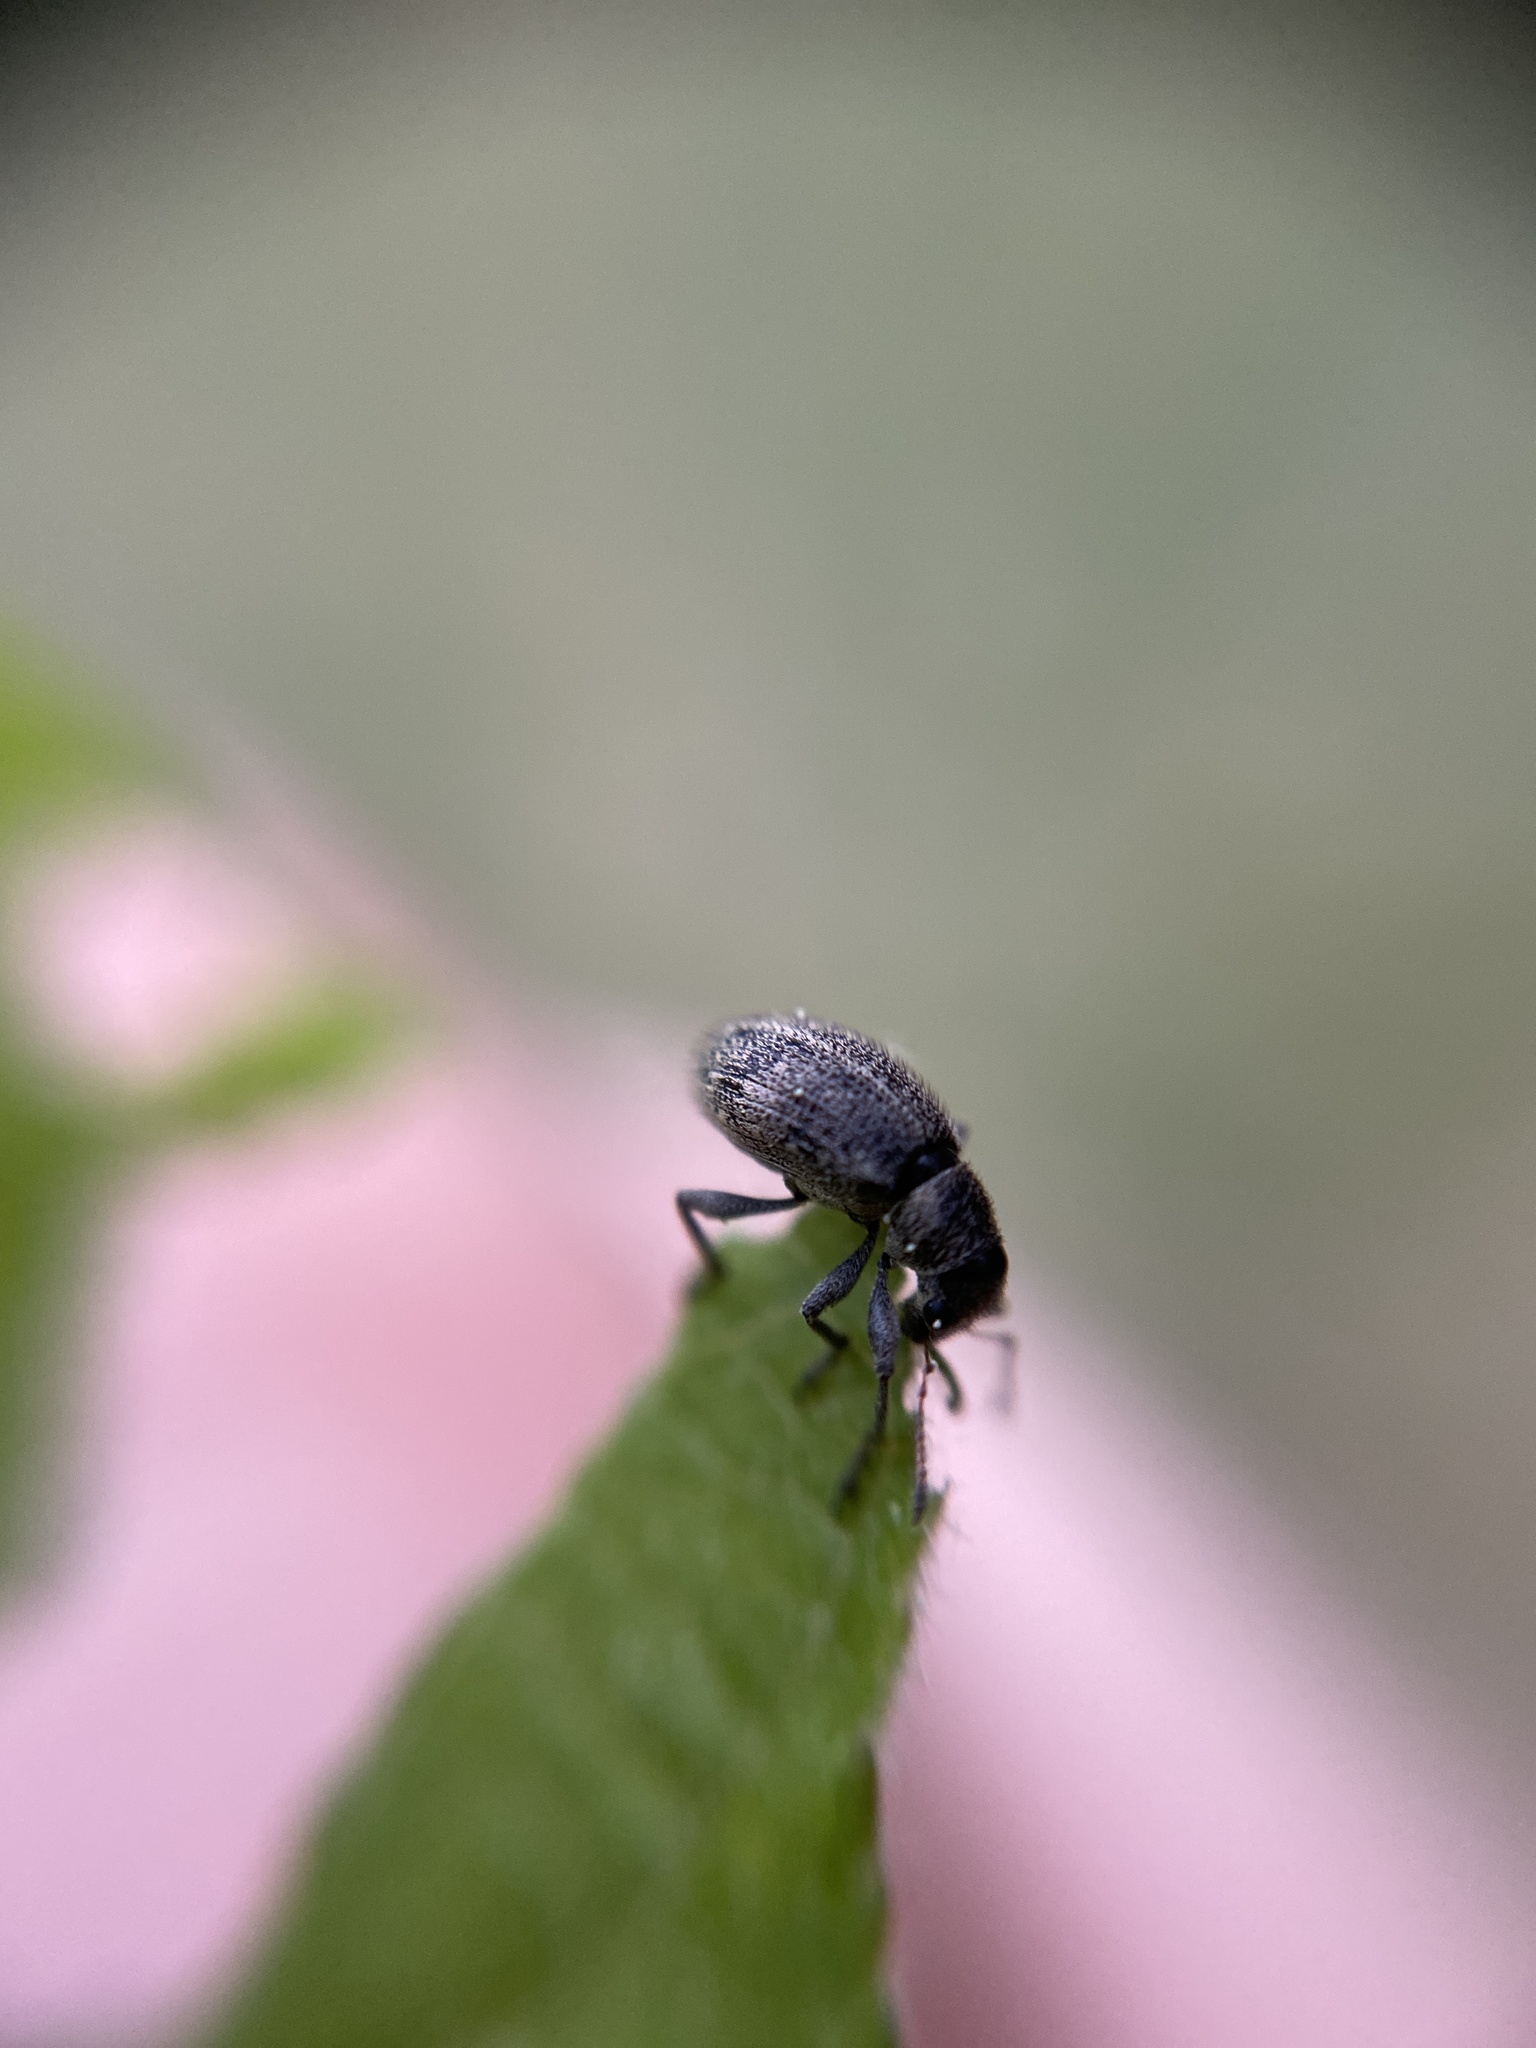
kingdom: Animalia
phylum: Arthropoda
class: Insecta
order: Coleoptera
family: Curculionidae
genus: Polydrusus
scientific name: Polydrusus inustus
